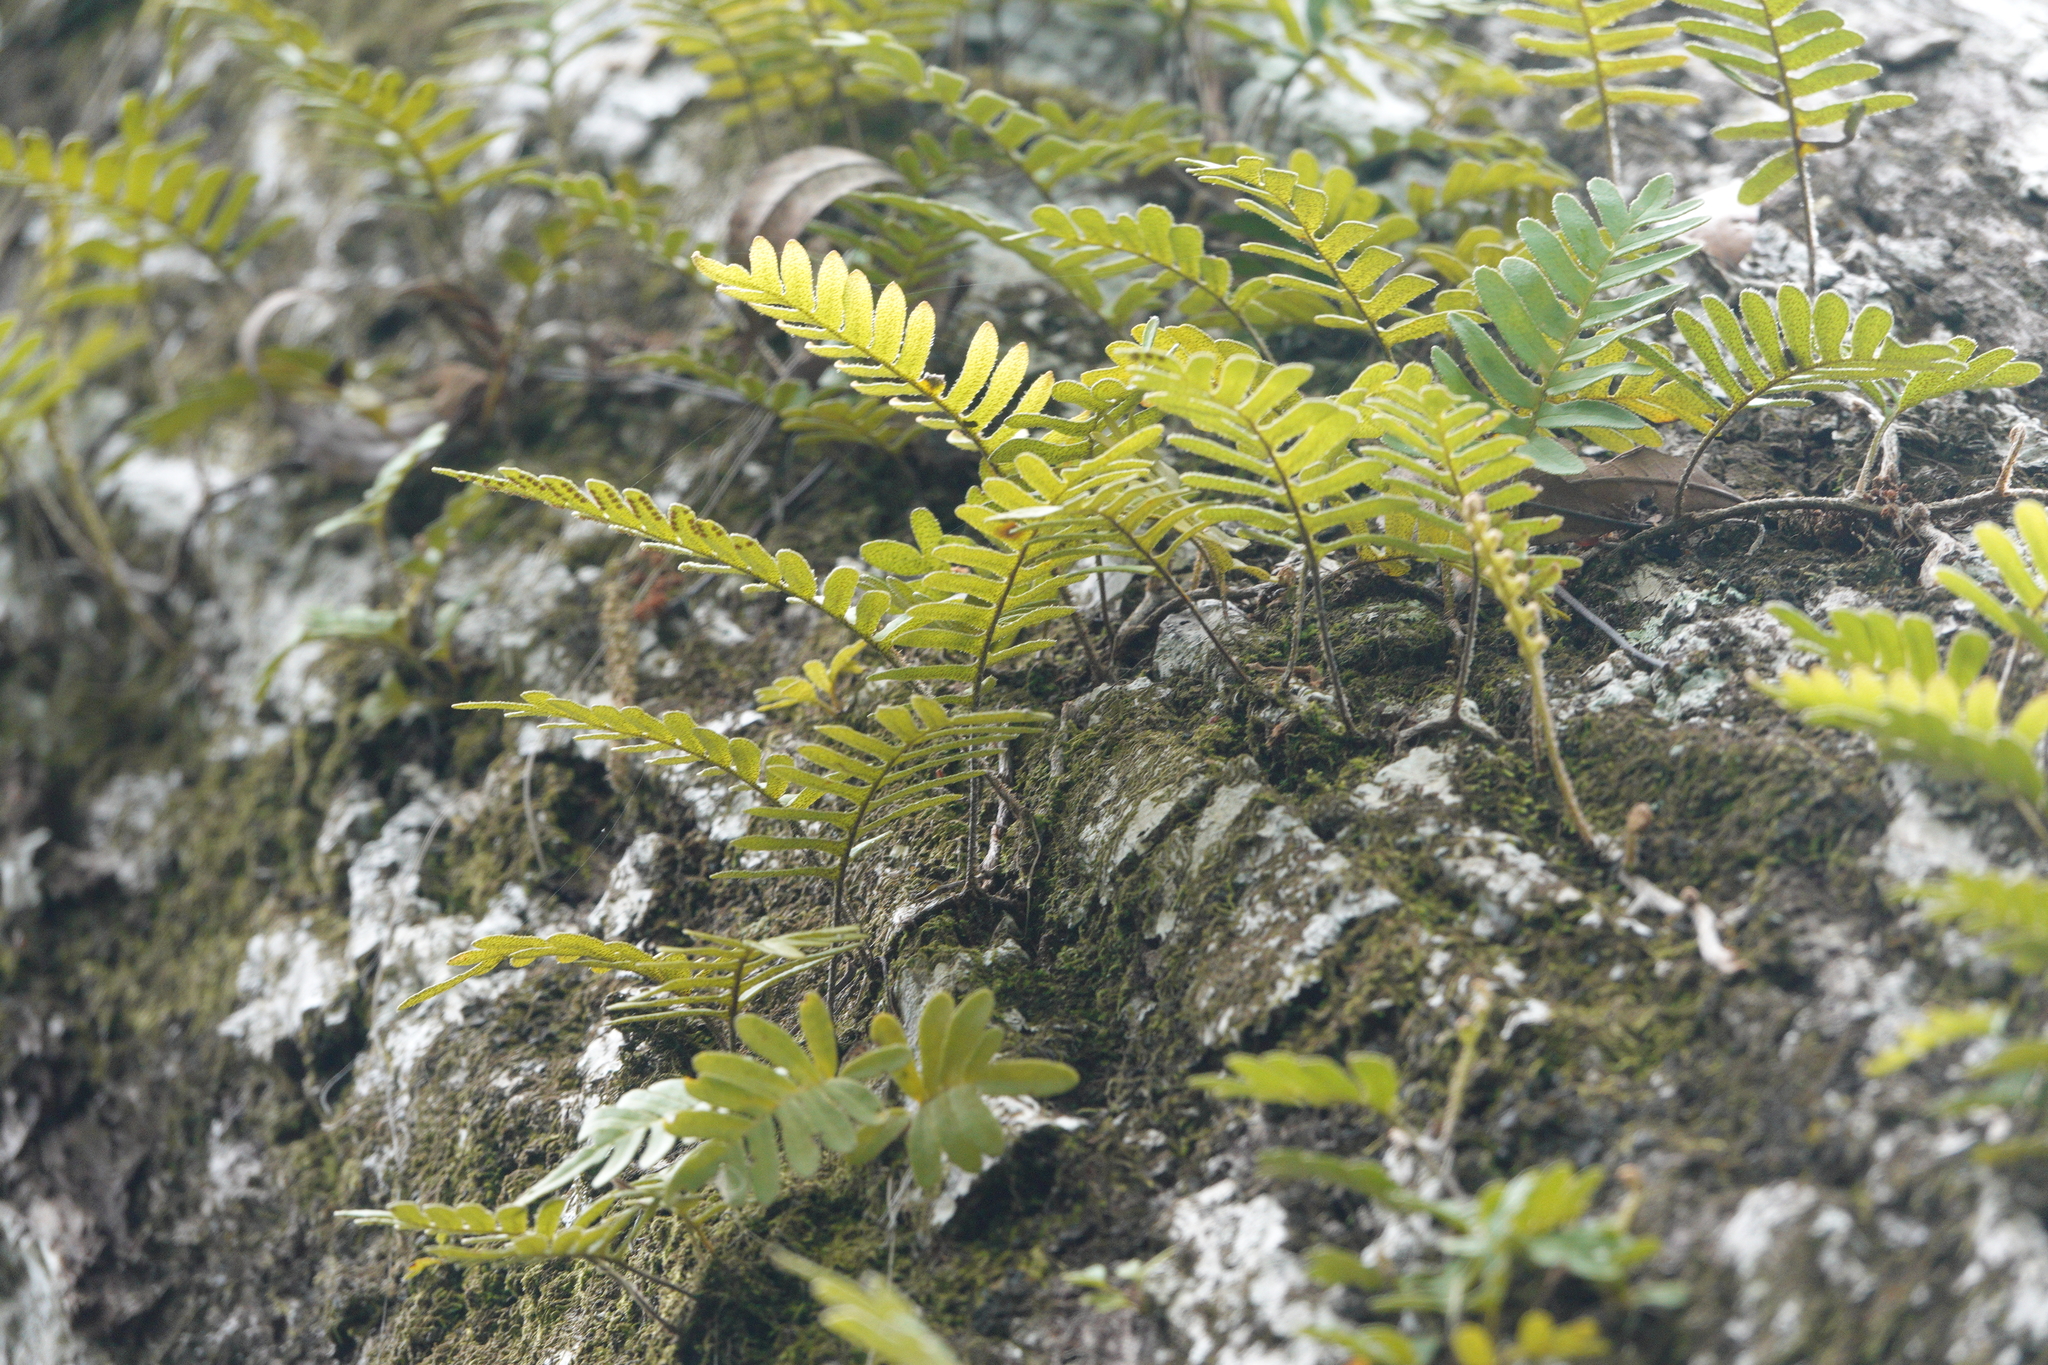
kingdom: Plantae
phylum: Tracheophyta
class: Polypodiopsida
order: Polypodiales
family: Polypodiaceae
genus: Pleopeltis
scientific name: Pleopeltis michauxiana
